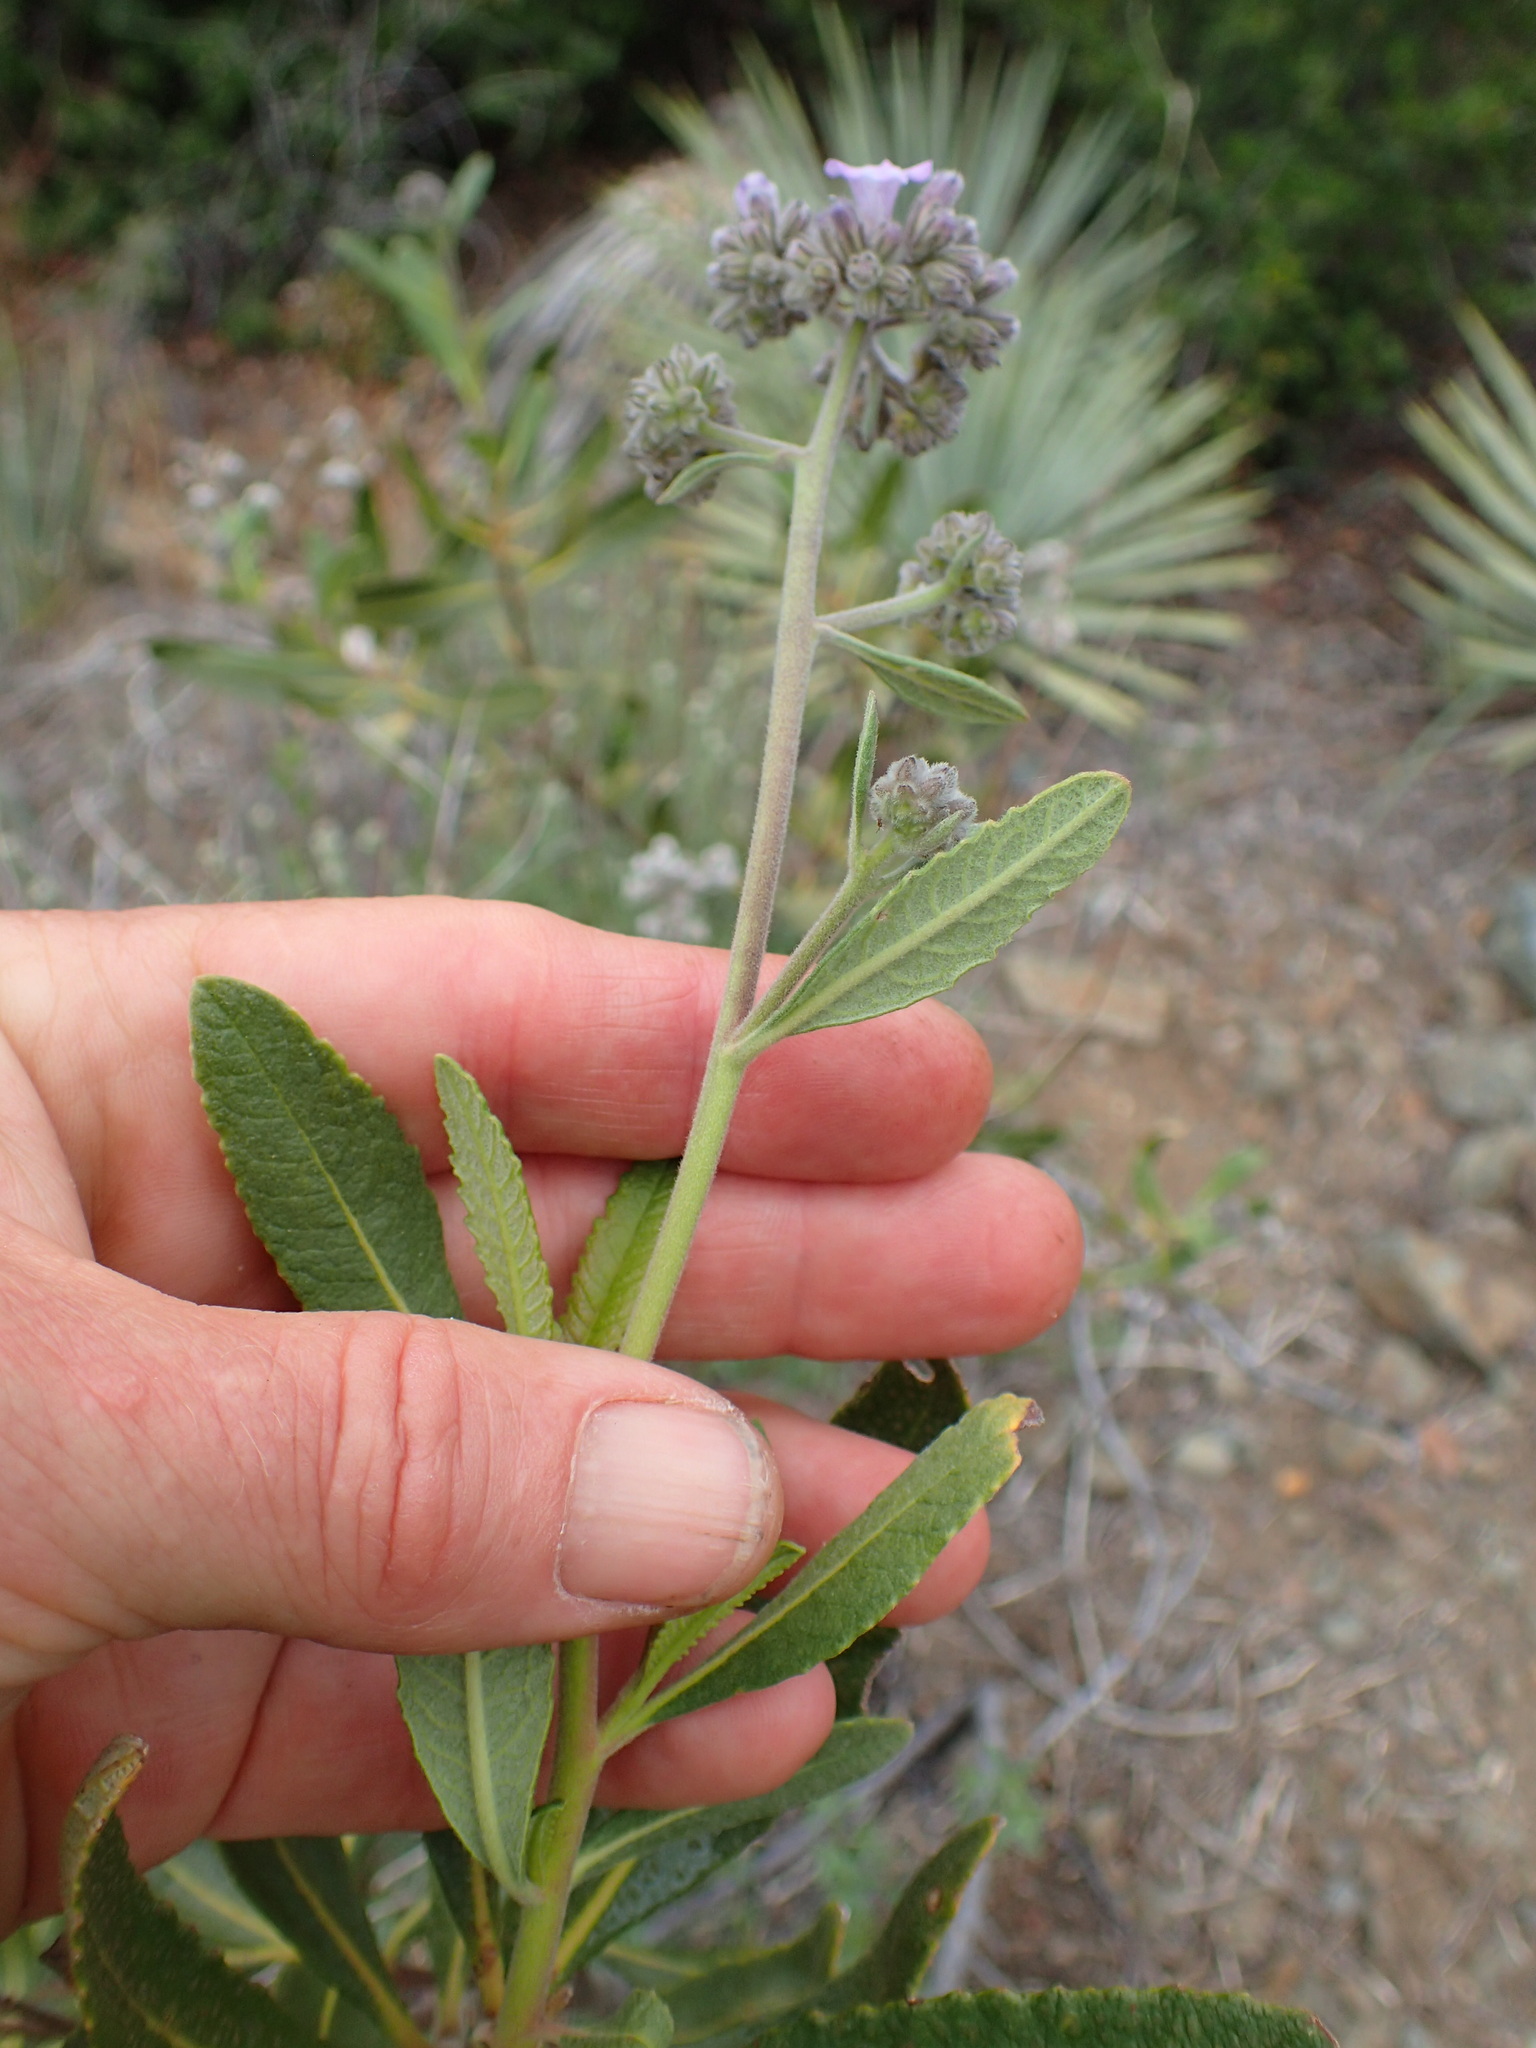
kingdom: Plantae
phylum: Tracheophyta
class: Magnoliopsida
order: Boraginales
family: Namaceae
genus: Eriodictyon
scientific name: Eriodictyon crassifolium
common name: Thick-leaf yerba-santa
